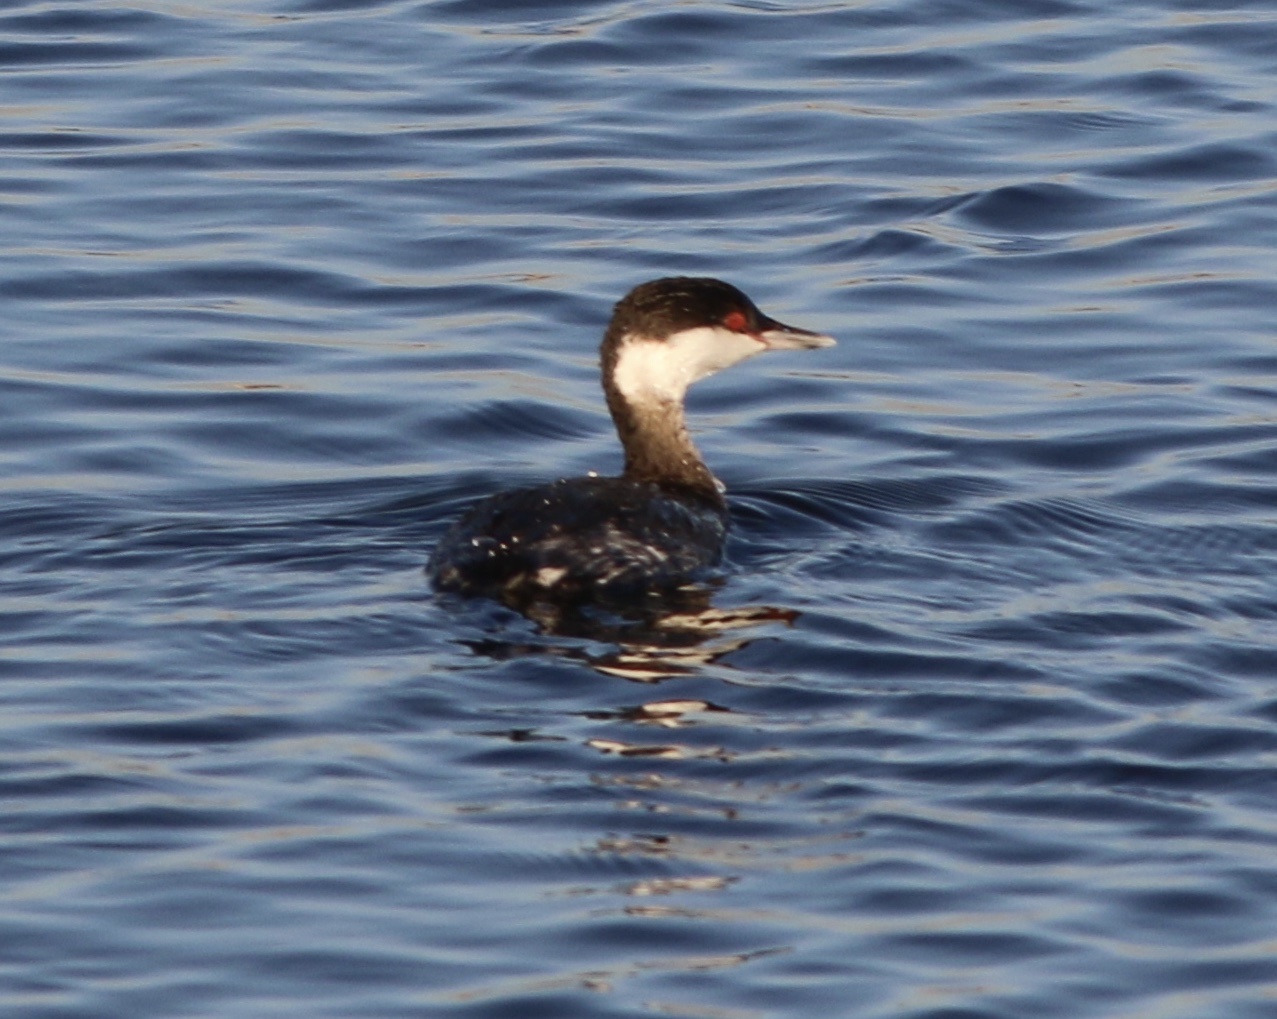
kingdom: Animalia
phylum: Chordata
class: Aves
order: Podicipediformes
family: Podicipedidae
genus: Podiceps
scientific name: Podiceps auritus
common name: Horned grebe
